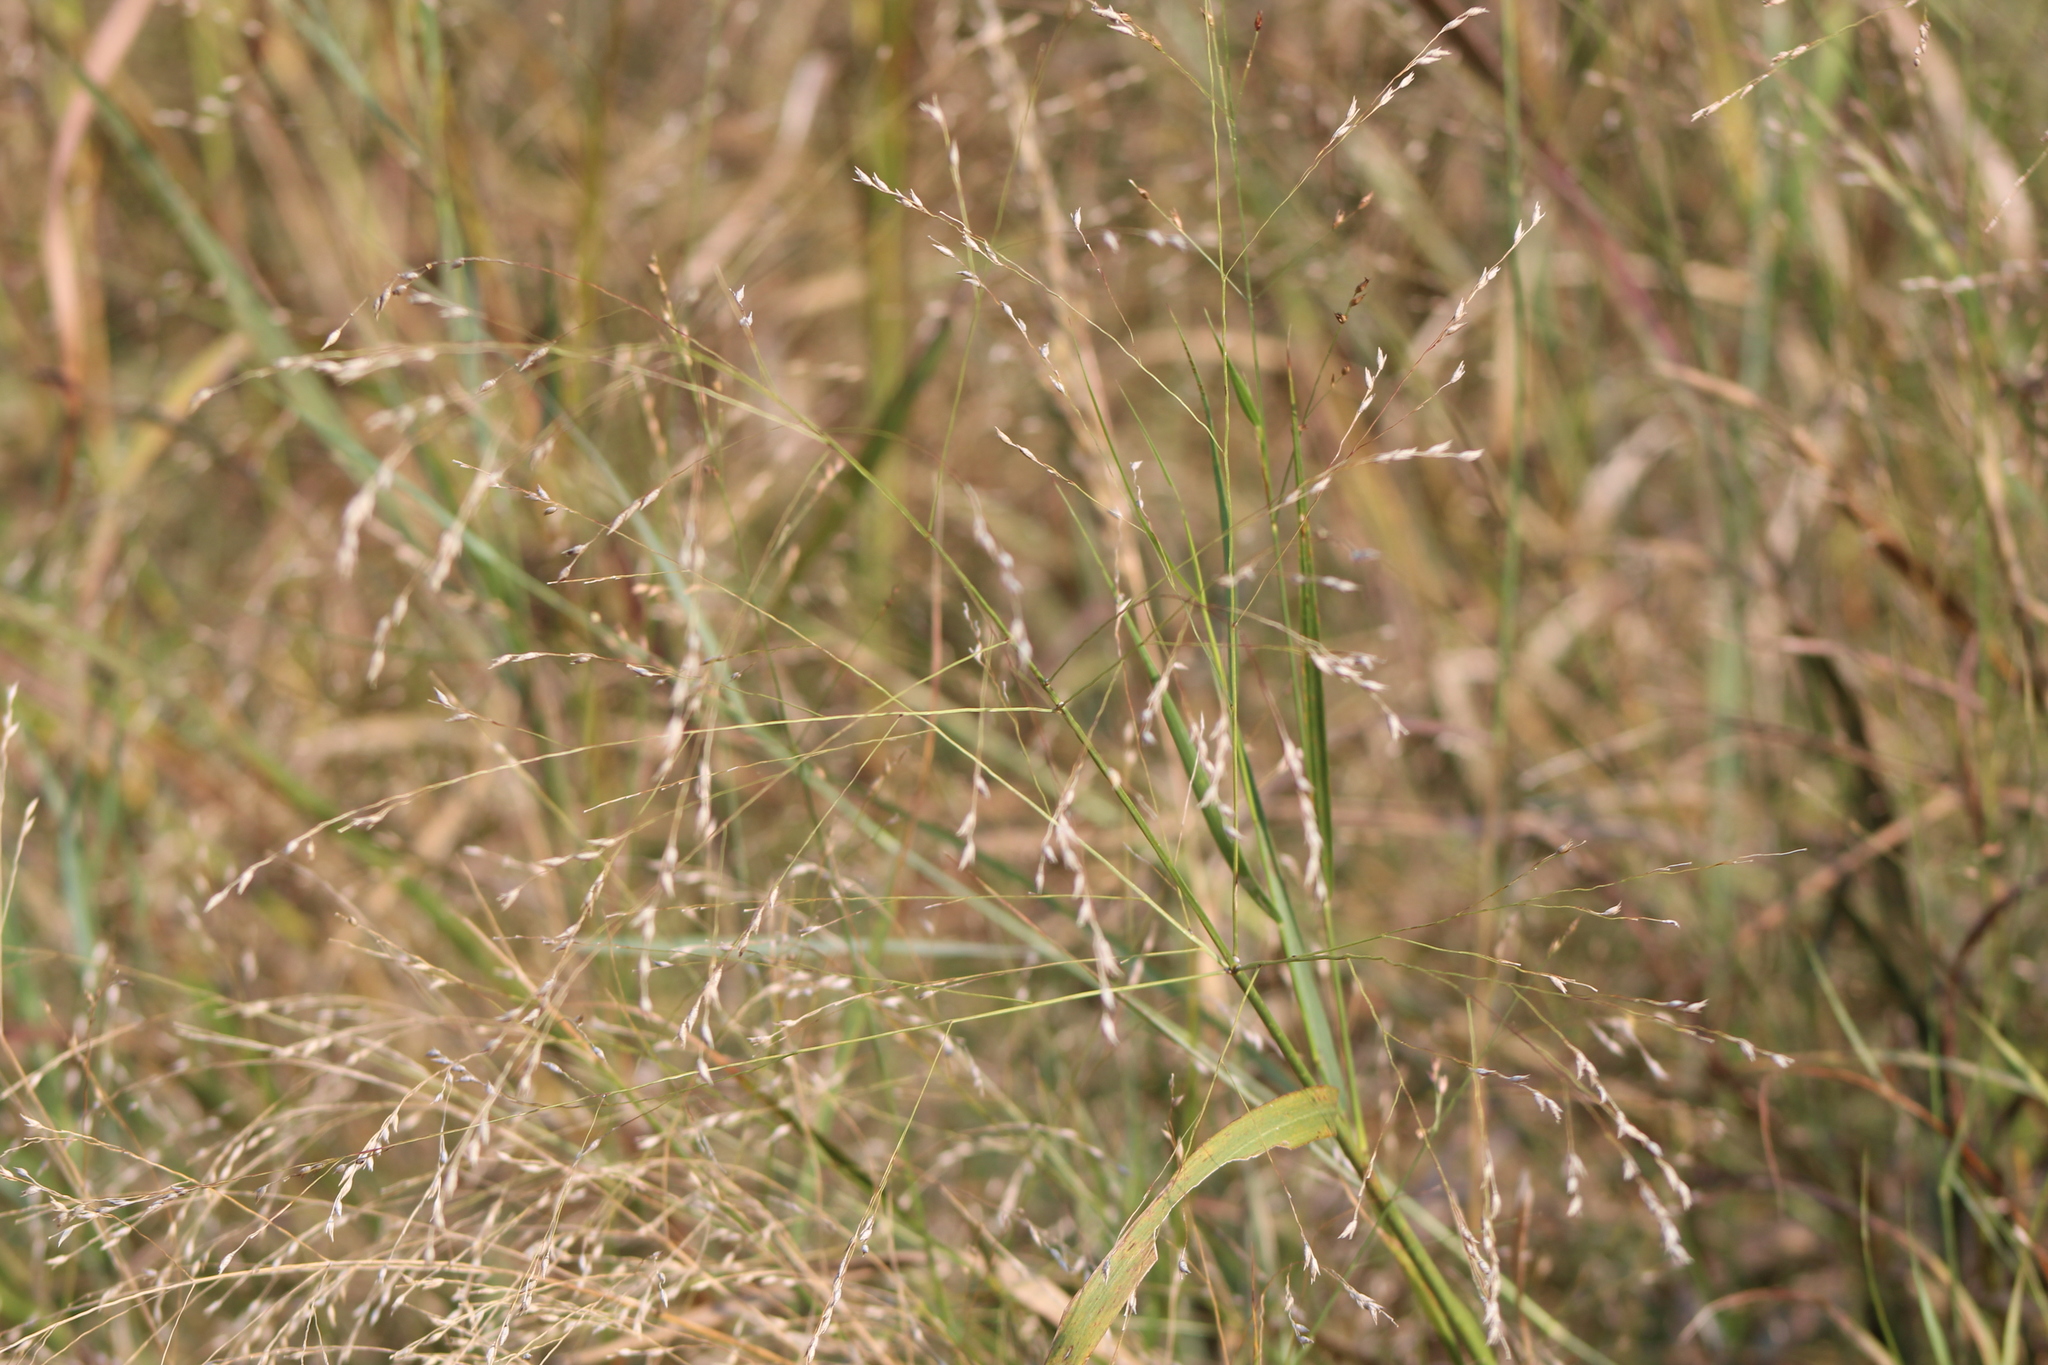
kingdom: Plantae
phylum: Tracheophyta
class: Liliopsida
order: Poales
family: Poaceae
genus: Panicum
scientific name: Panicum virgatum
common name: Switchgrass
